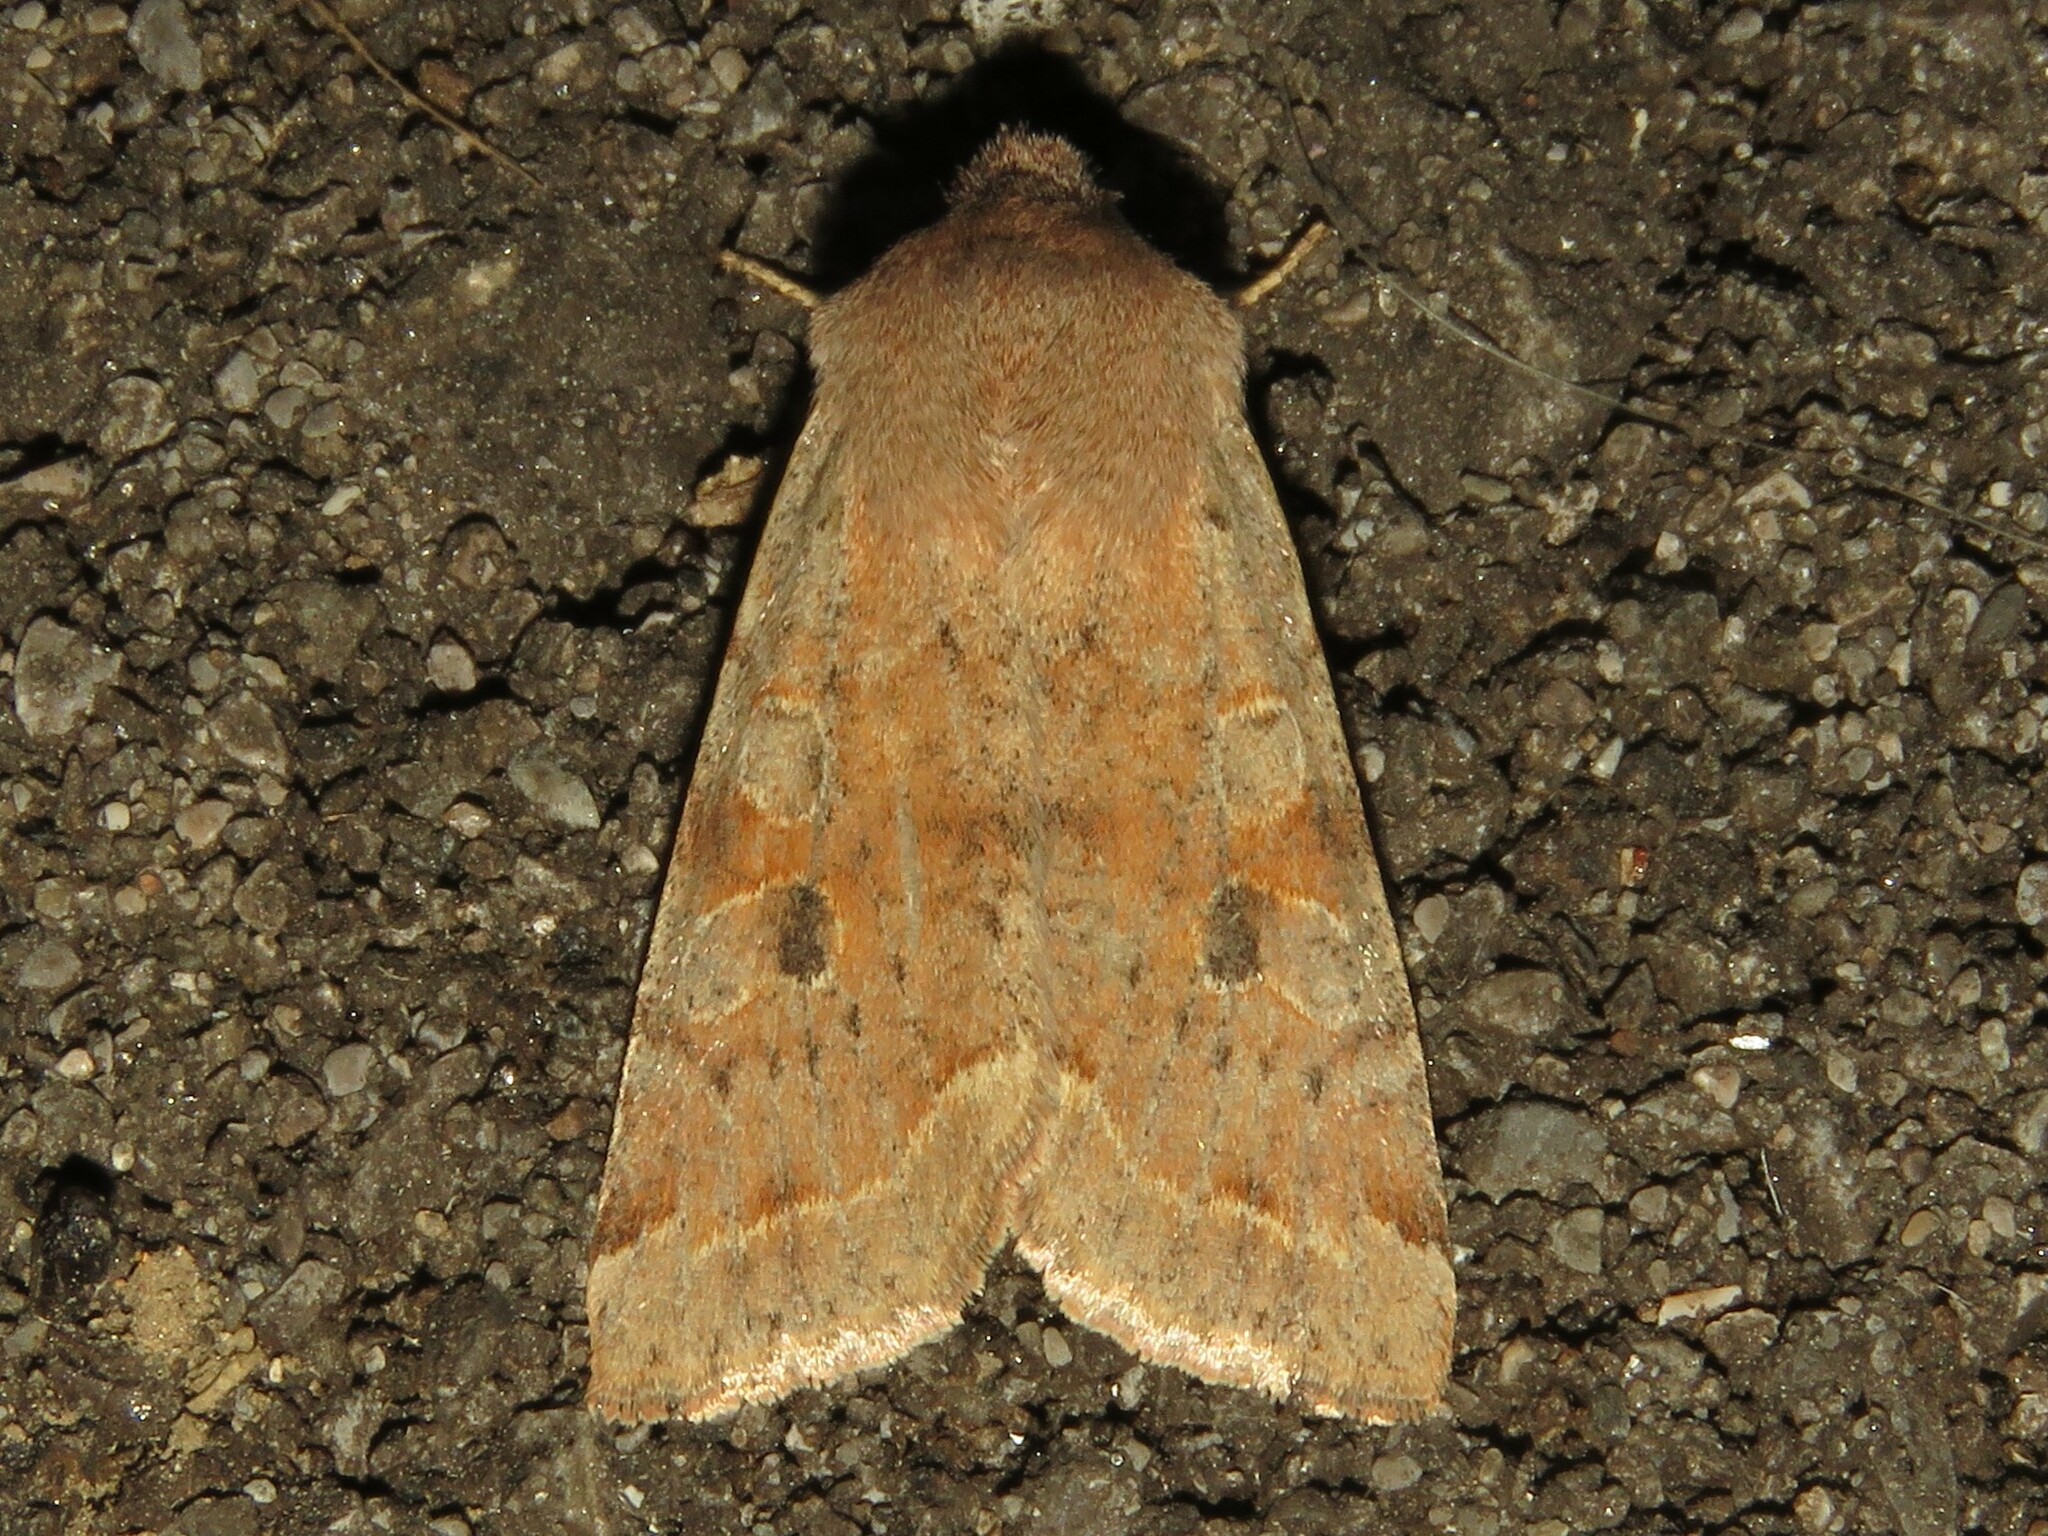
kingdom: Animalia
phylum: Arthropoda
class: Insecta
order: Lepidoptera
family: Noctuidae
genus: Orthosia
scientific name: Orthosia hibisci
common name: Green fruitworm
